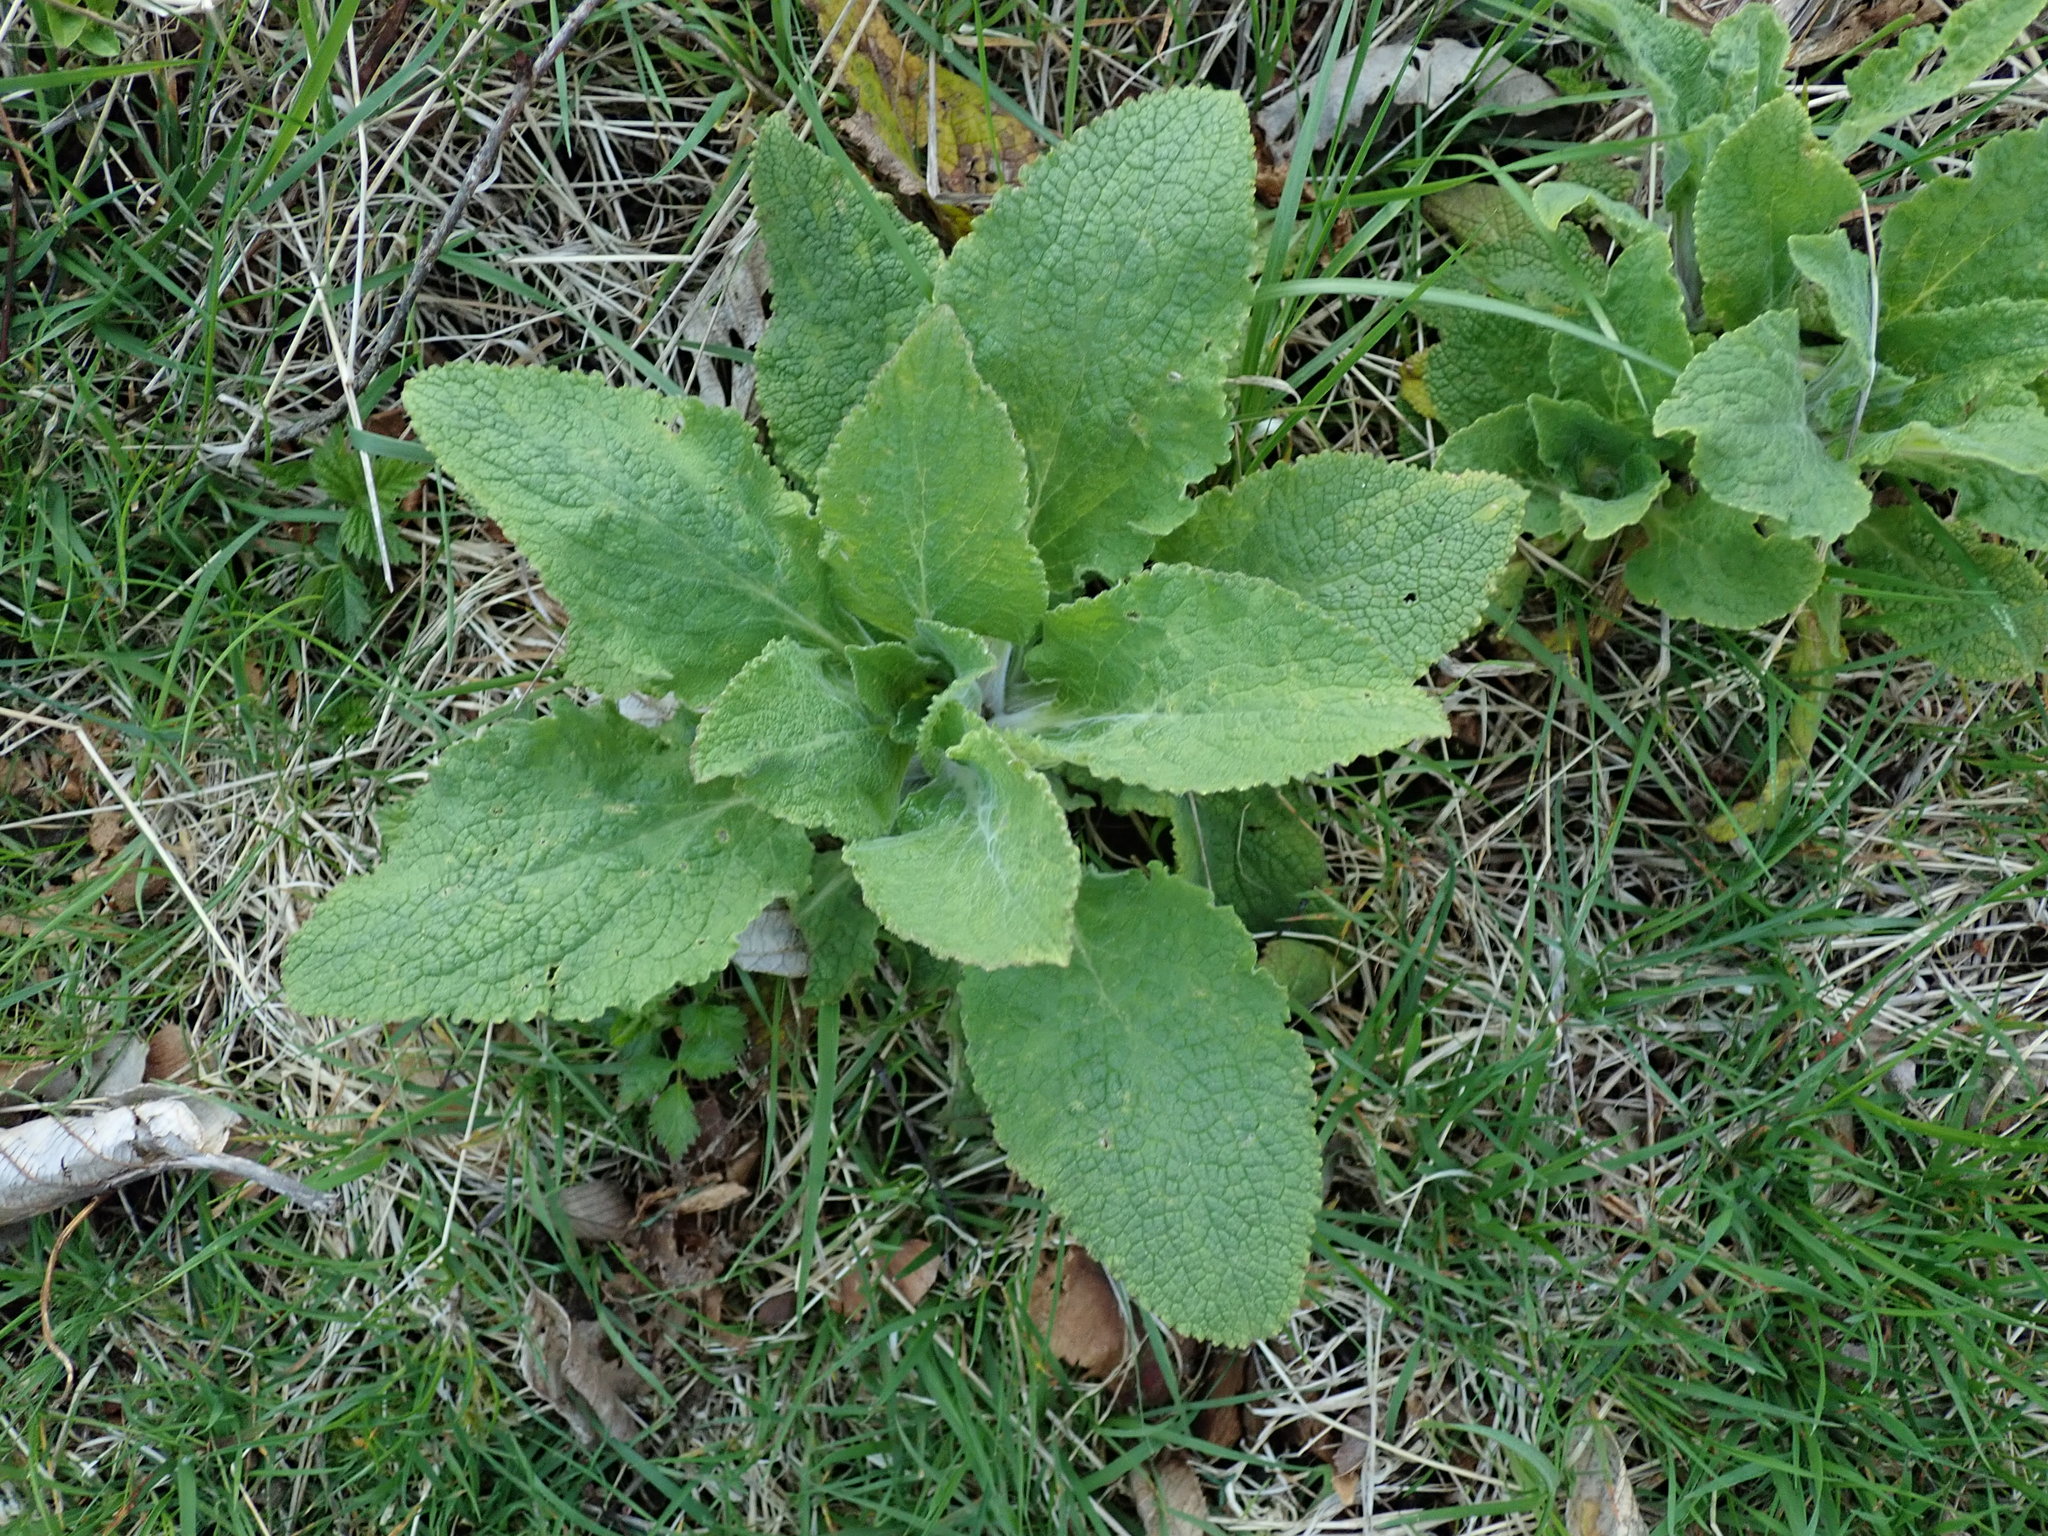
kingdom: Plantae
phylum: Tracheophyta
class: Magnoliopsida
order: Lamiales
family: Plantaginaceae
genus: Digitalis
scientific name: Digitalis purpurea
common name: Foxglove
